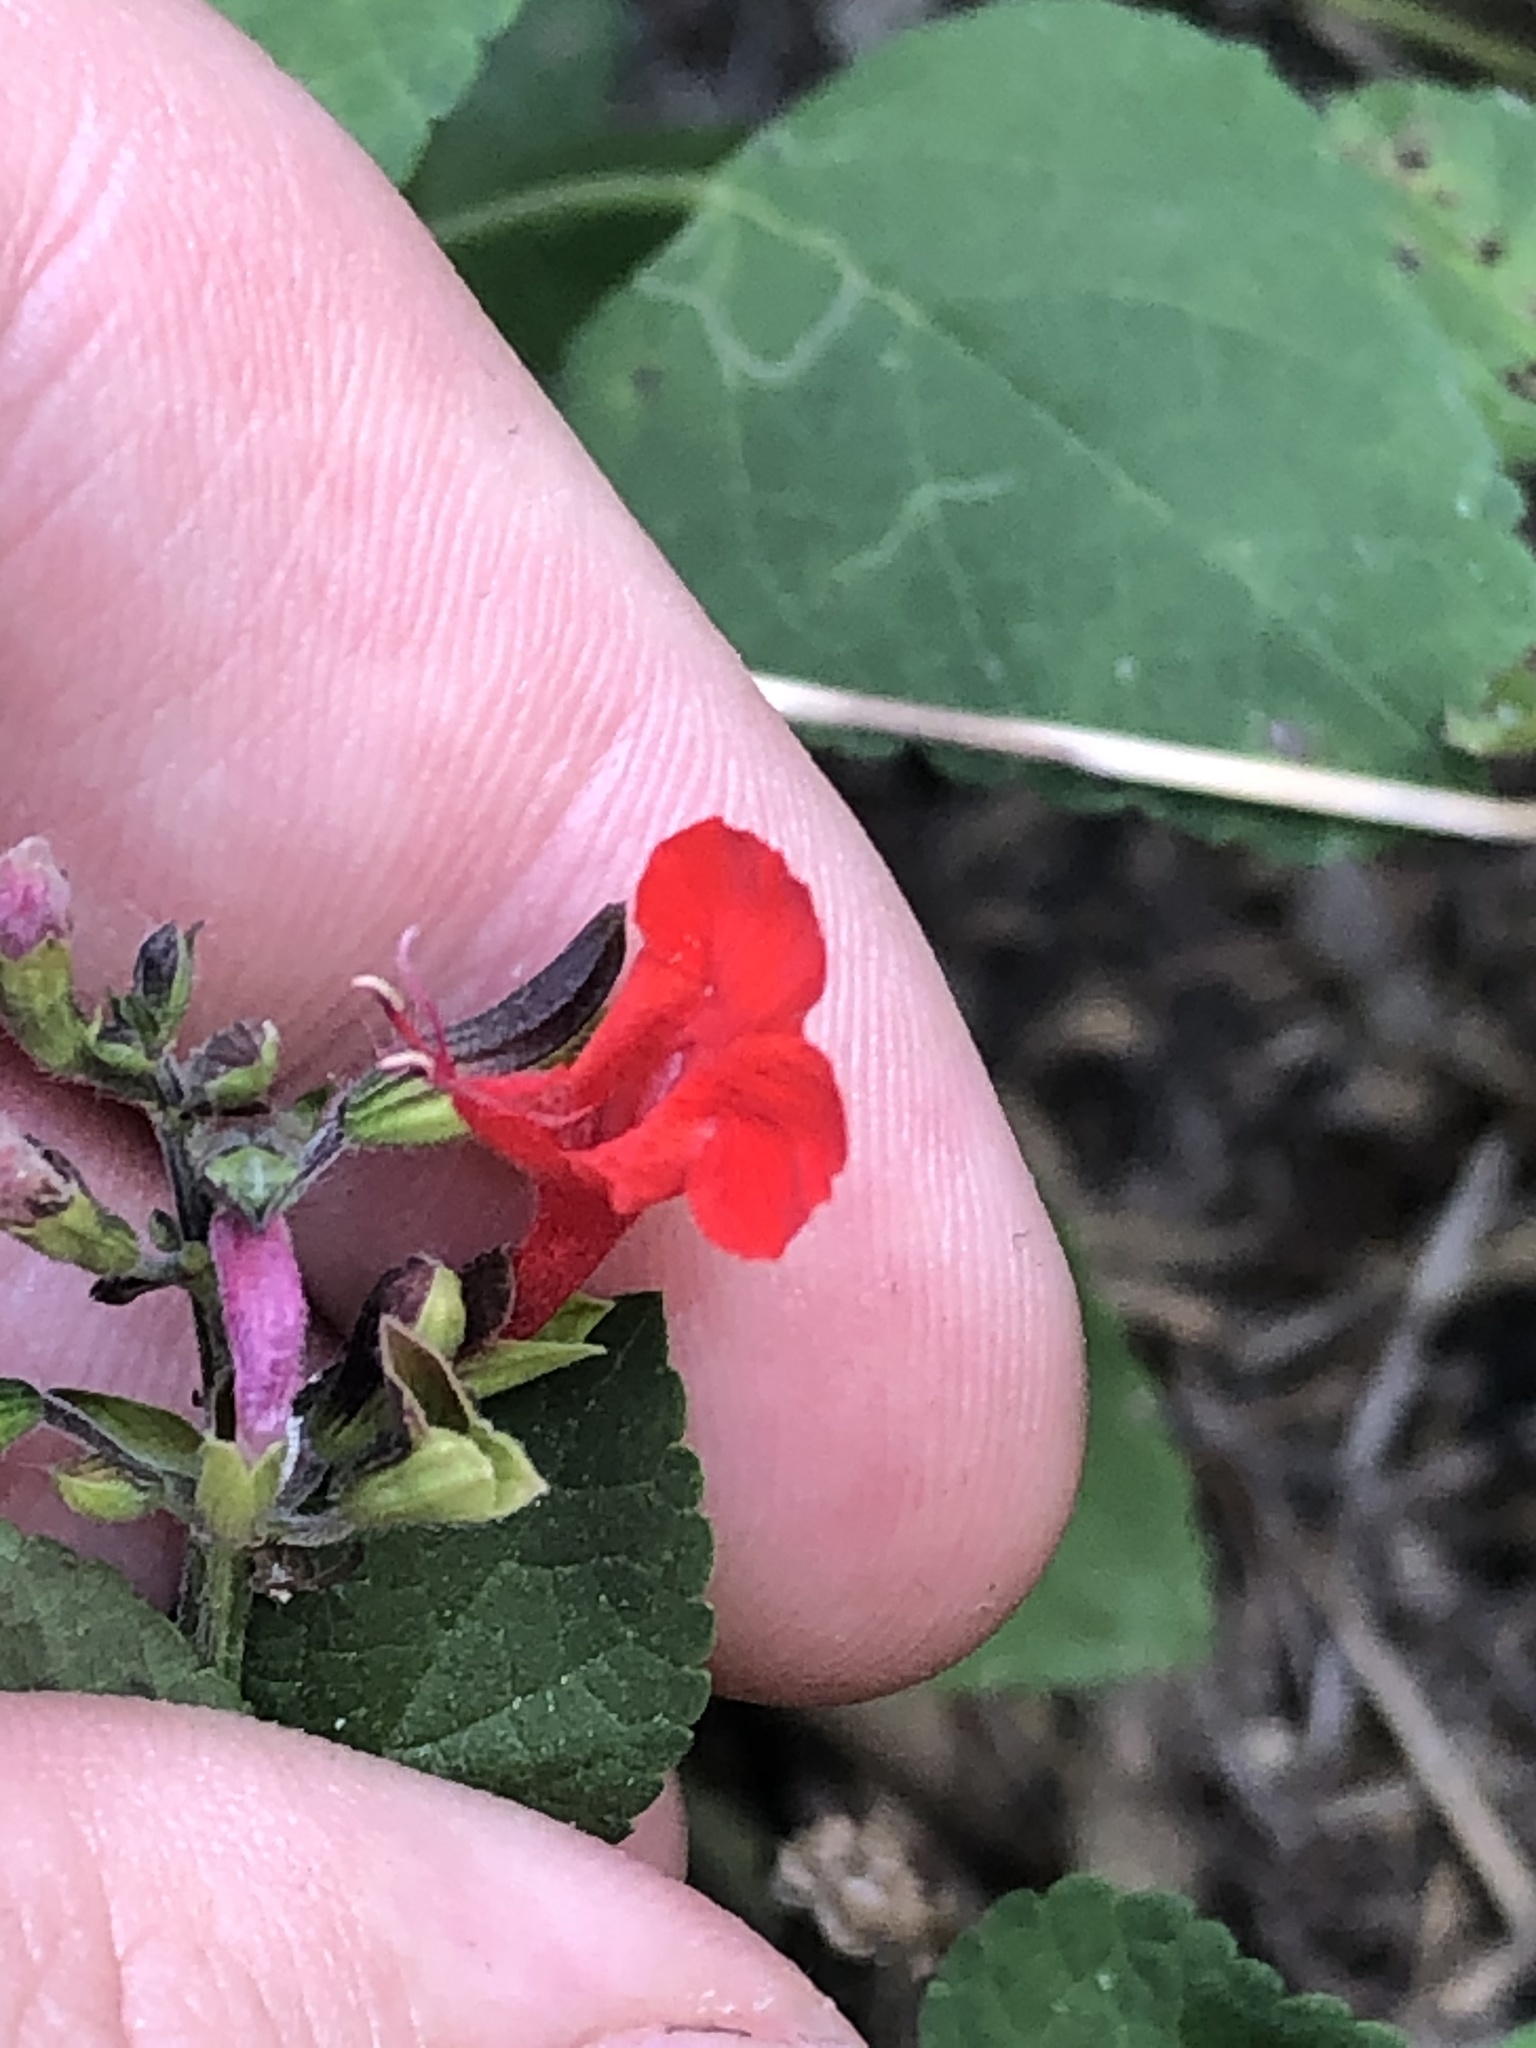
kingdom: Plantae
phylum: Tracheophyta
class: Magnoliopsida
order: Lamiales
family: Lamiaceae
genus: Salvia
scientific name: Salvia coccinea
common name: Blood sage
